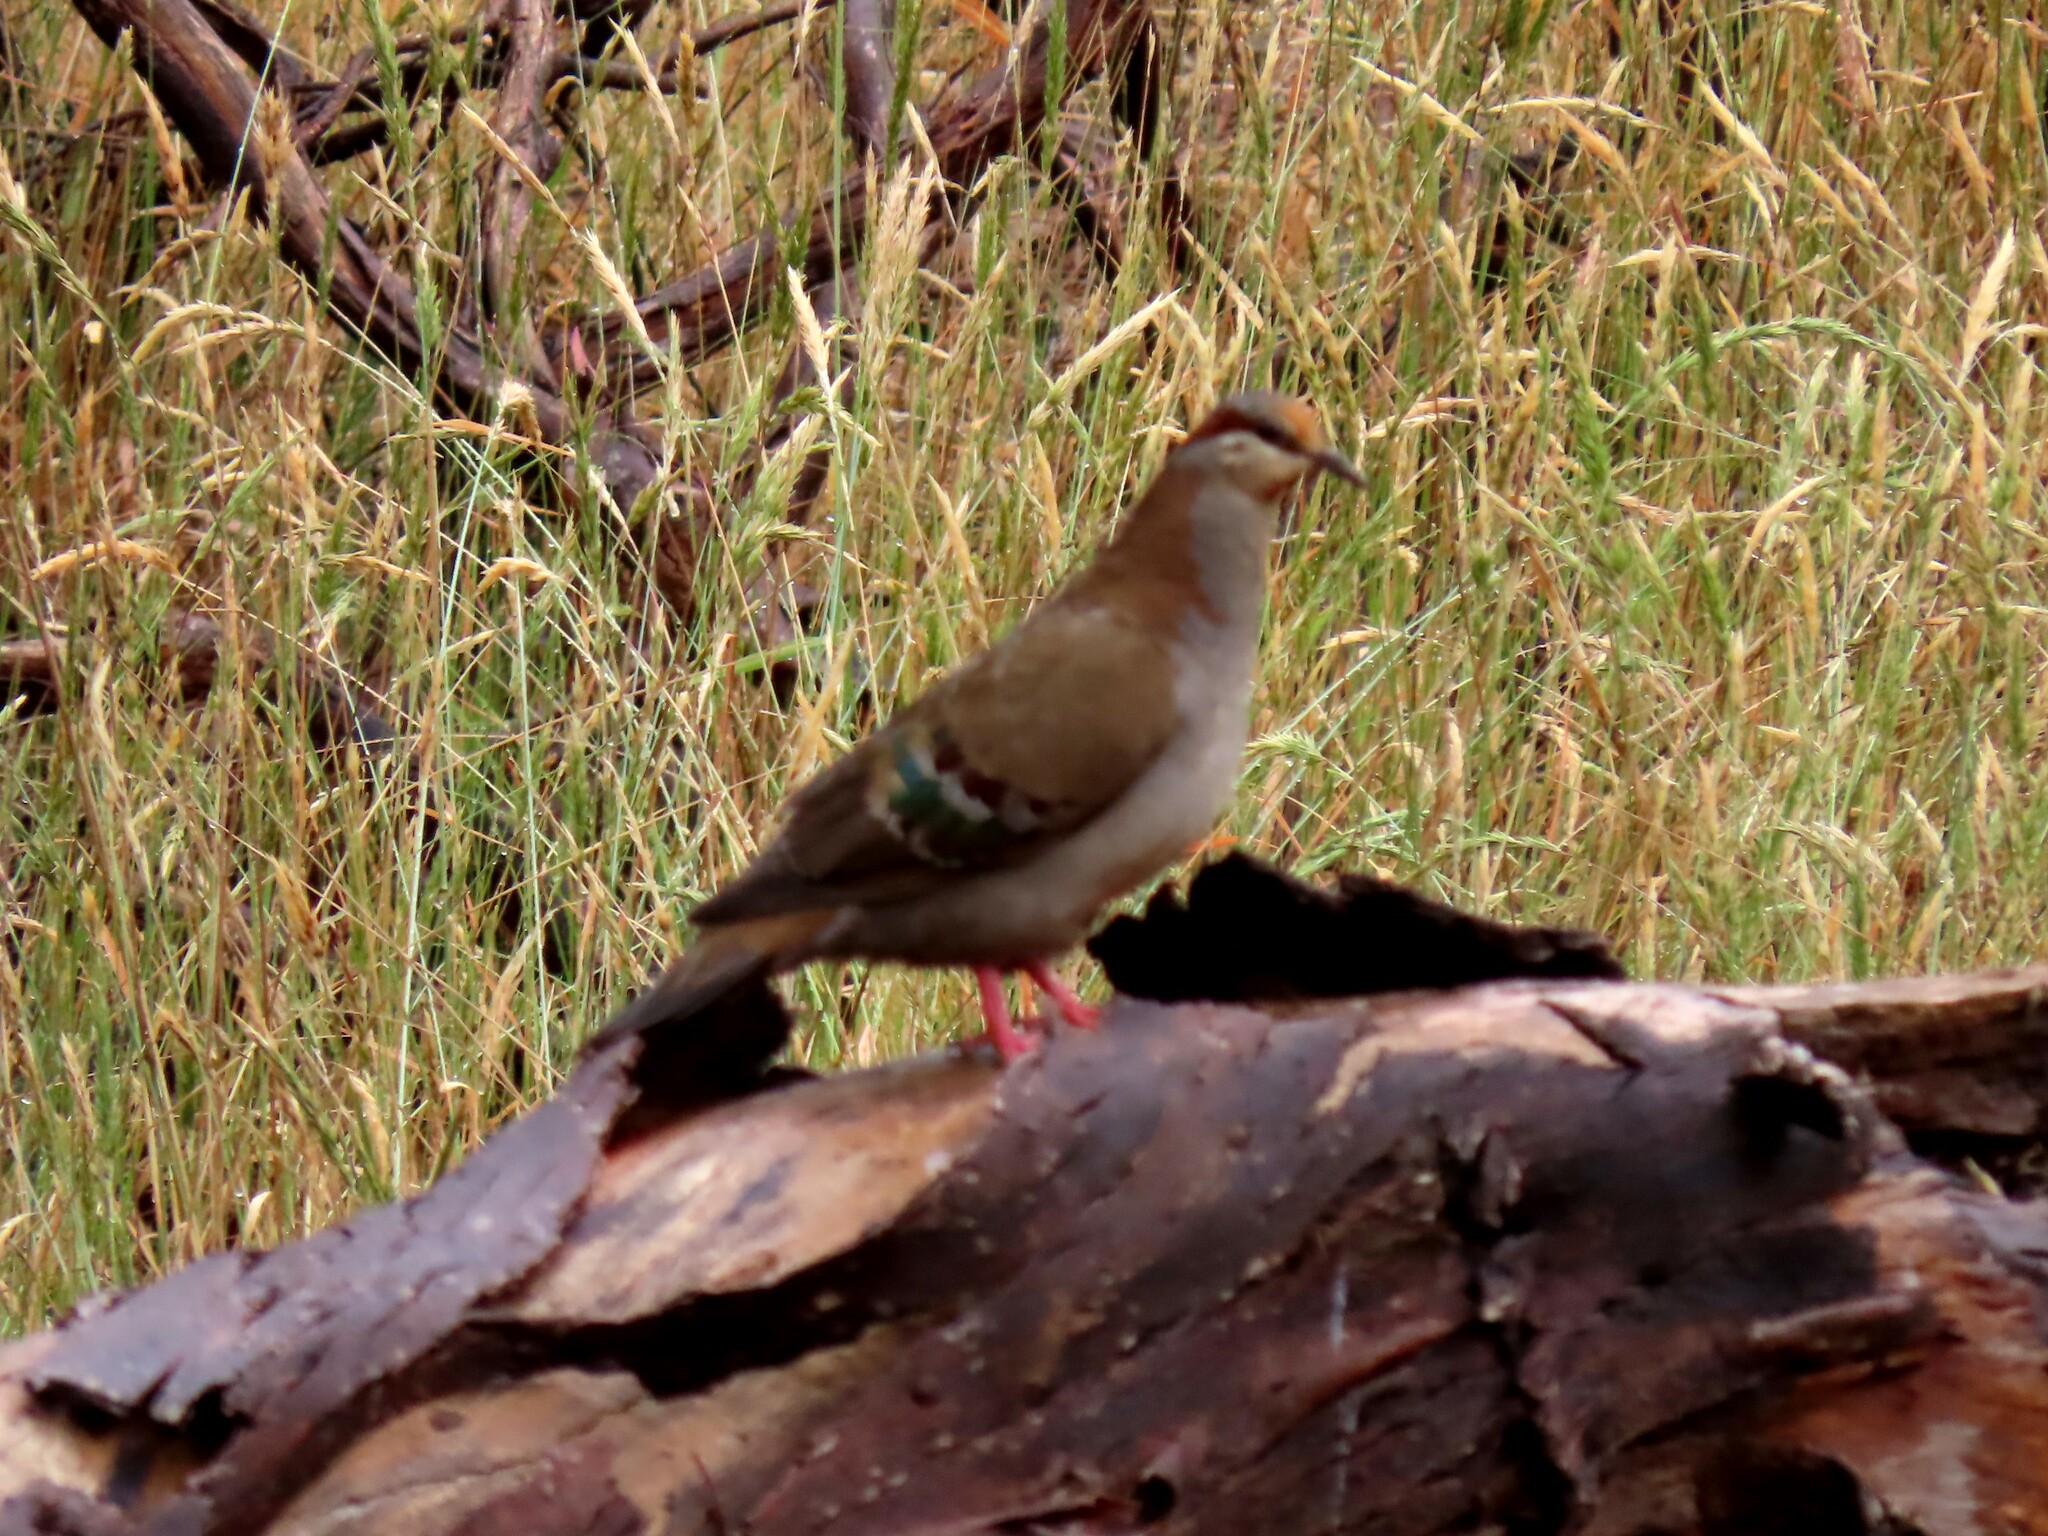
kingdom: Animalia
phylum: Chordata
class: Aves
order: Columbiformes
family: Columbidae
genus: Phaps
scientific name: Phaps elegans
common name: Brush bronzewing
